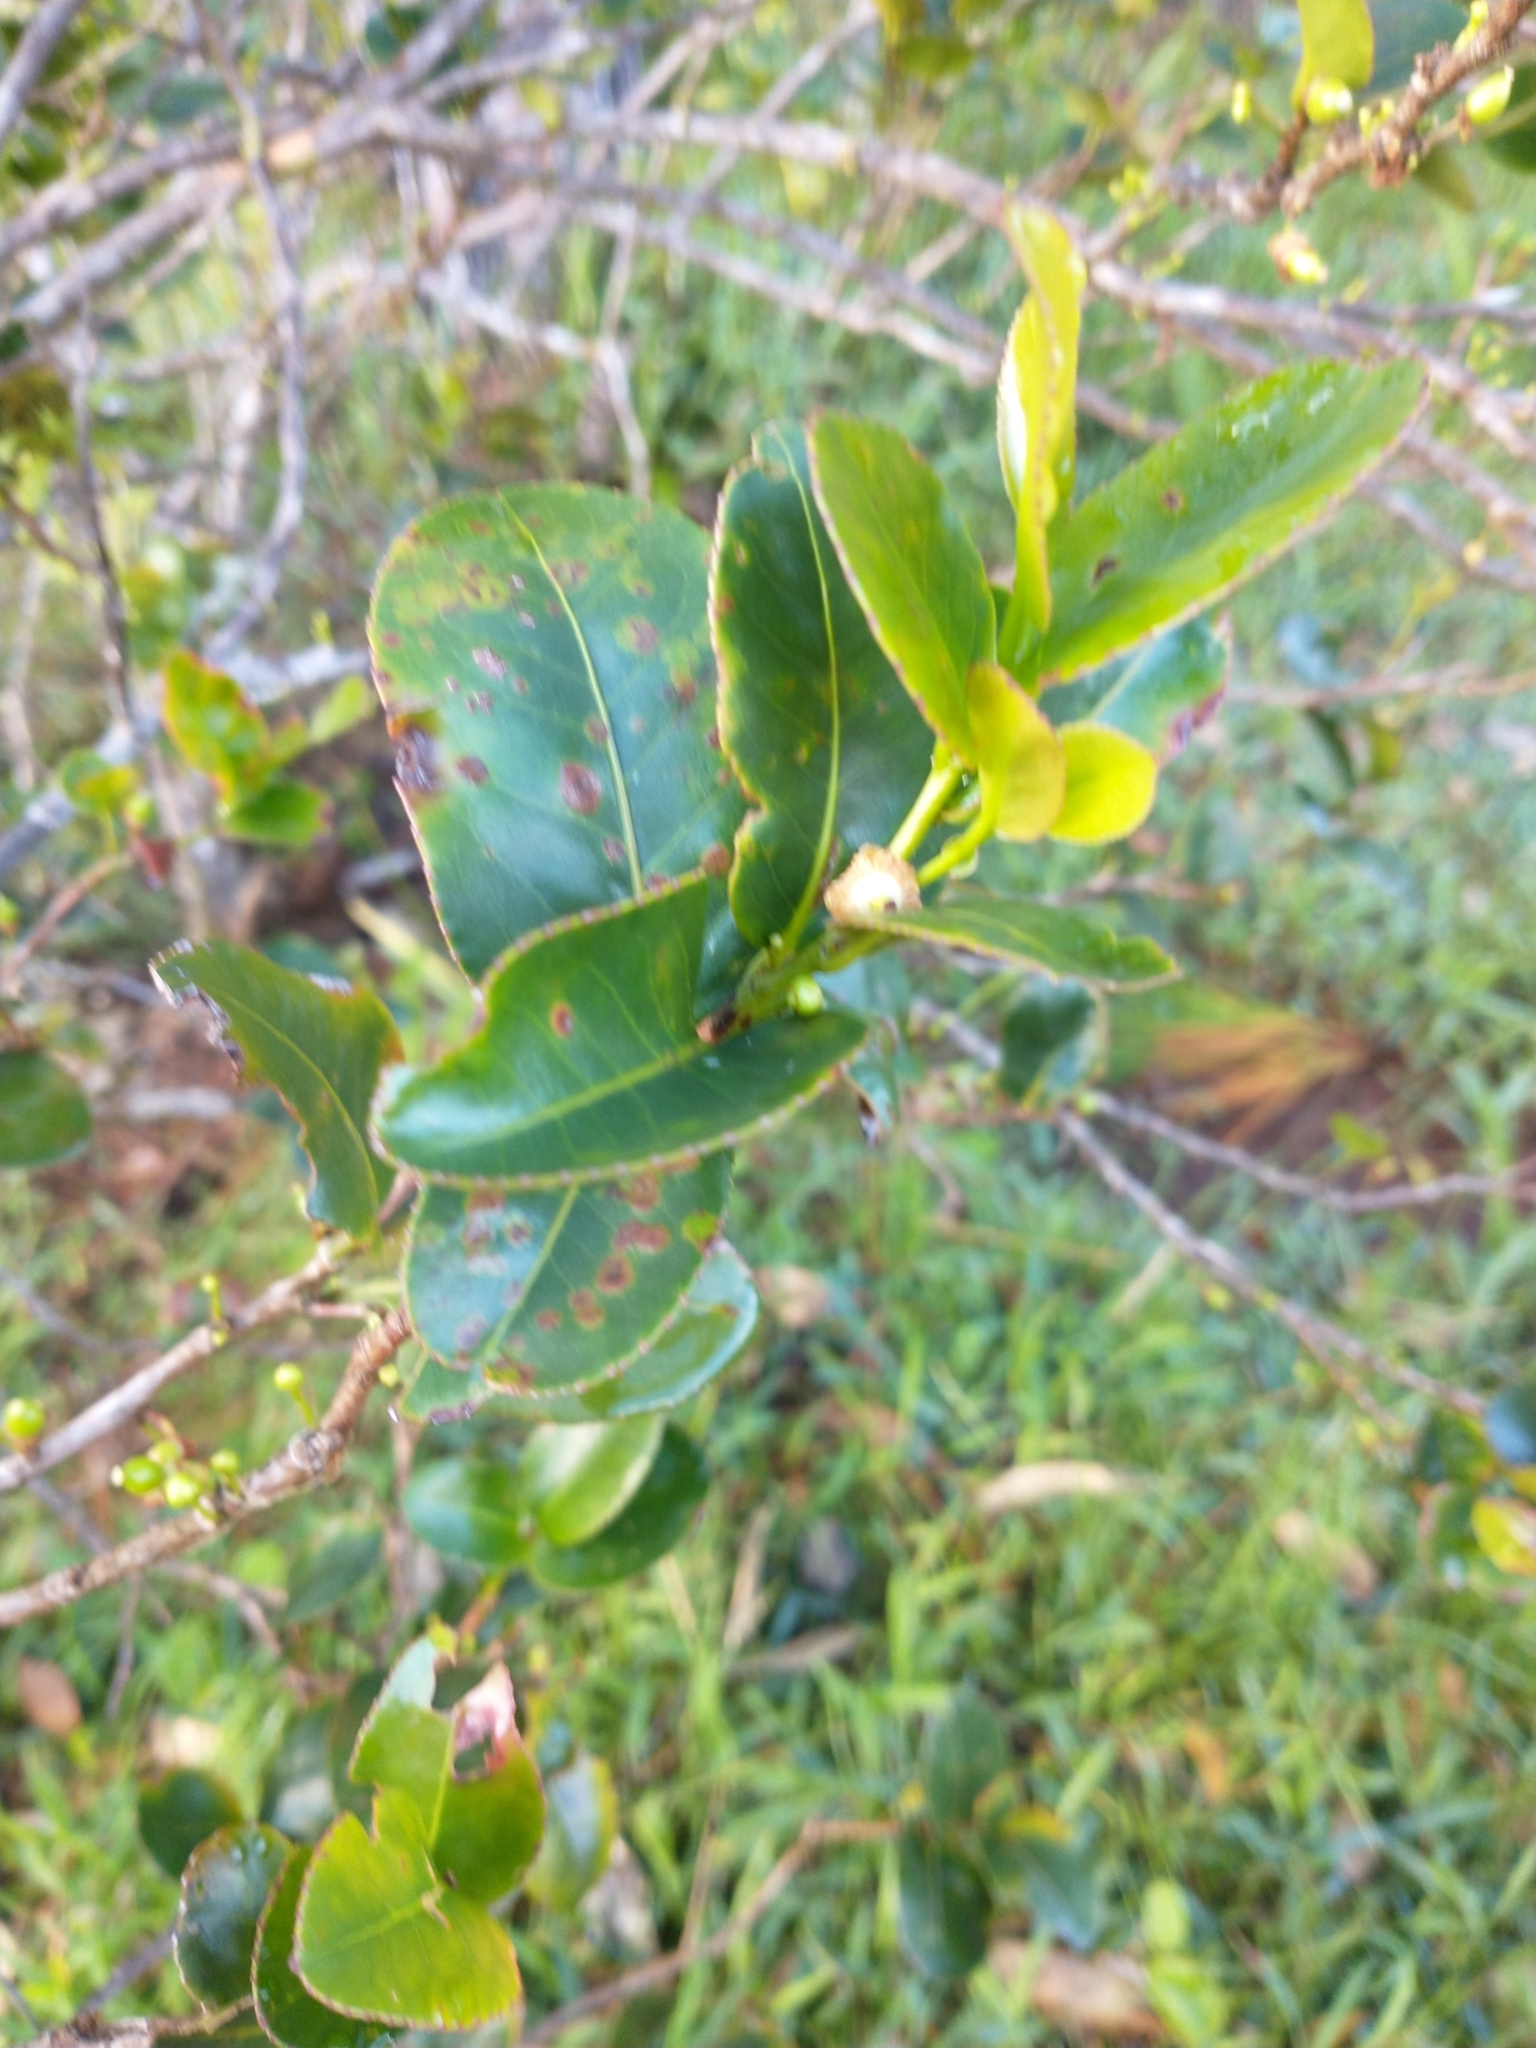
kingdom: Plantae
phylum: Tracheophyta
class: Magnoliopsida
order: Myrtales
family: Myrtaceae
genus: Psidium
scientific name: Psidium cattleianum
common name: Strawberry guava
